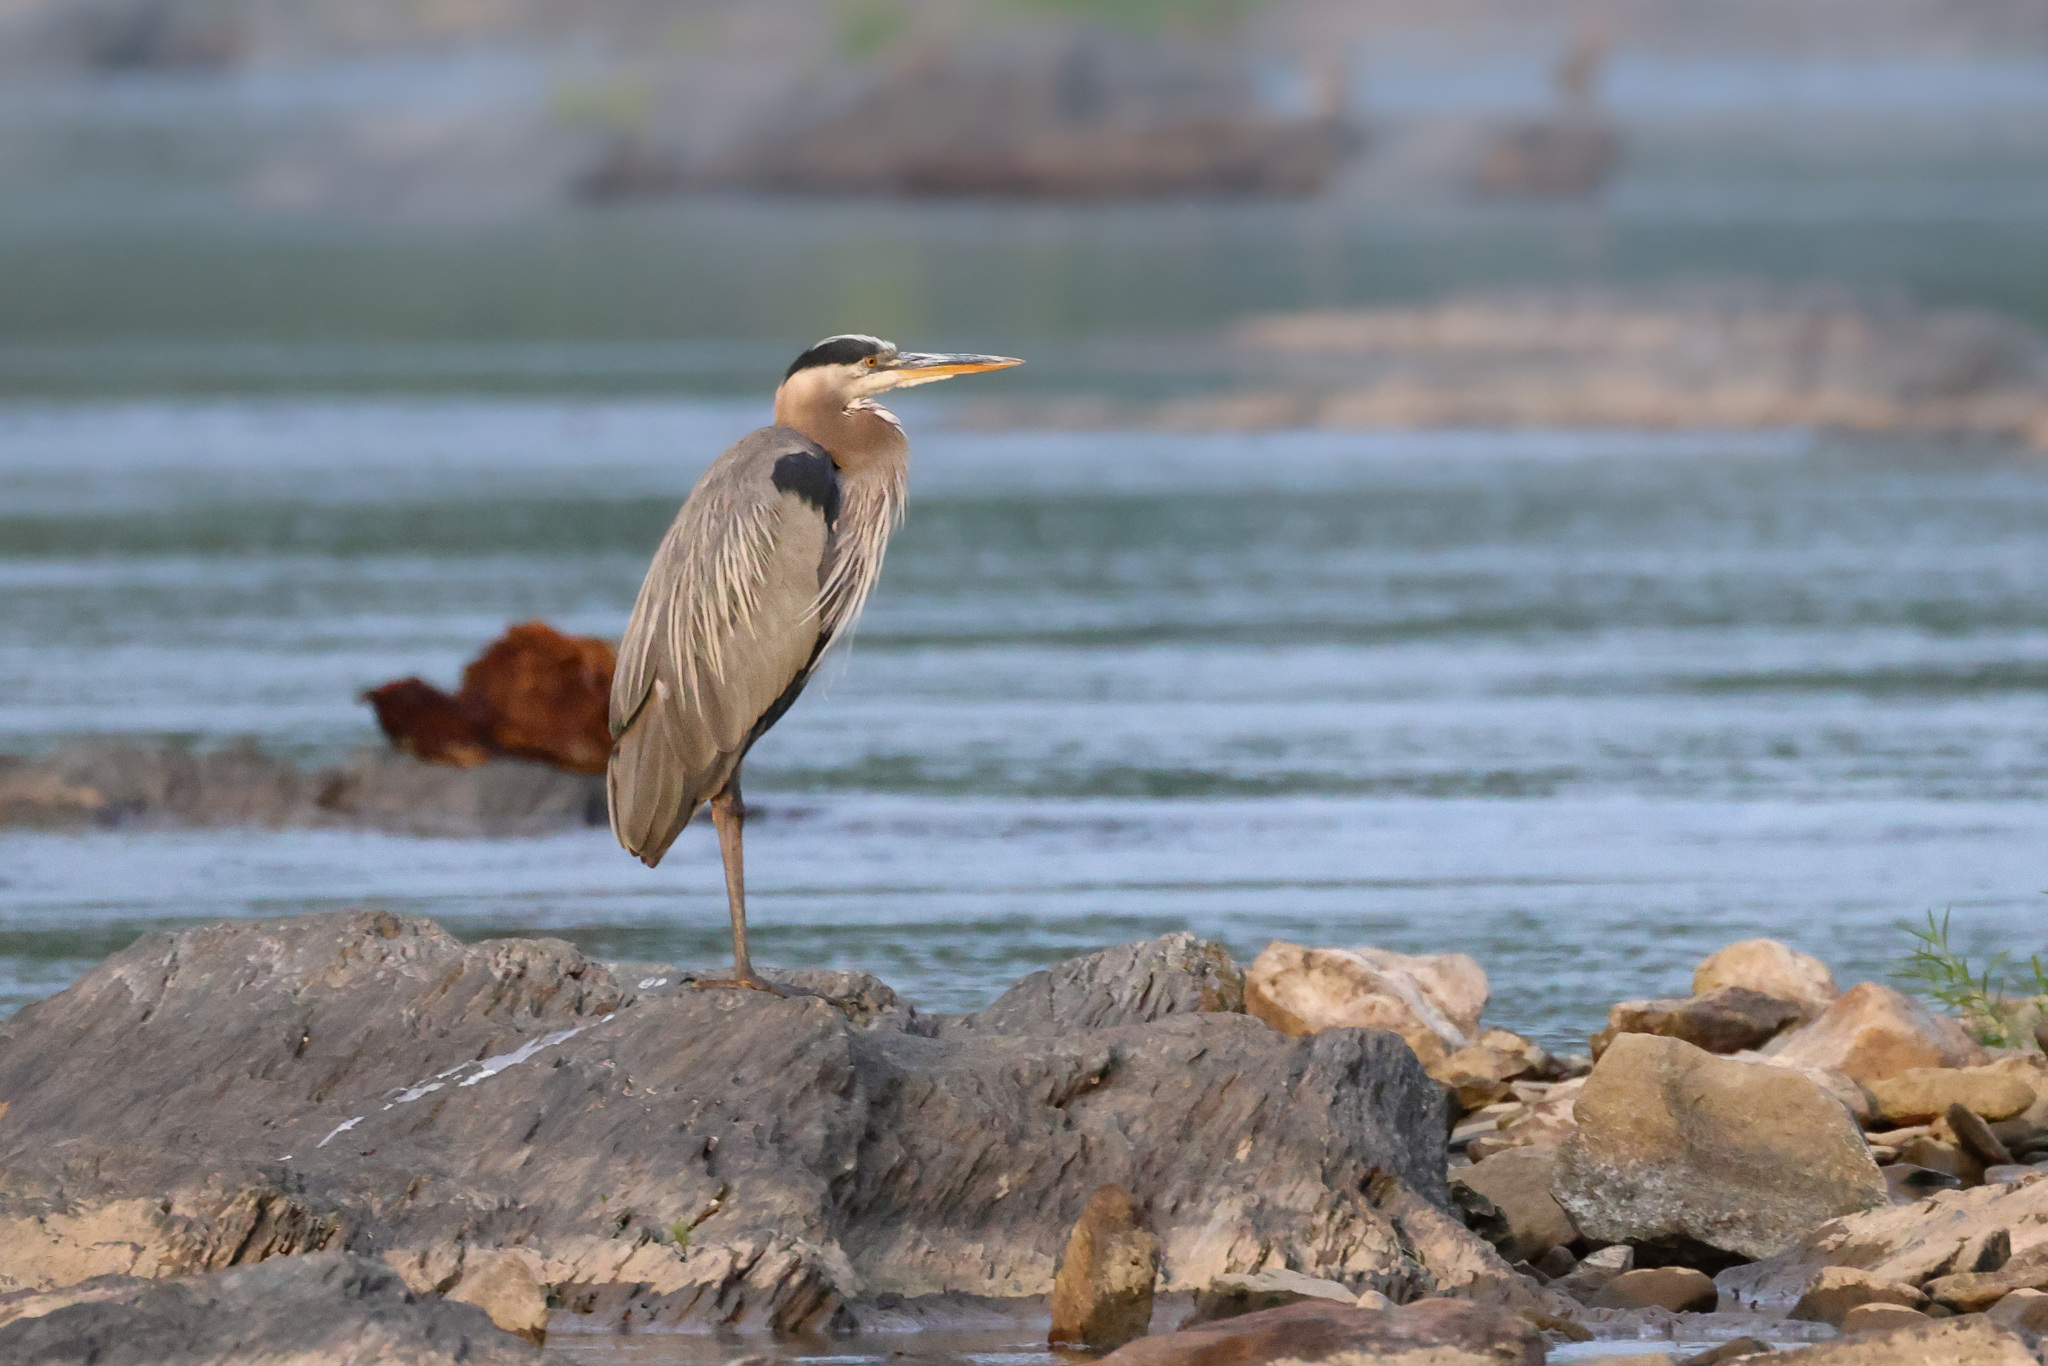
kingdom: Animalia
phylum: Chordata
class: Aves
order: Pelecaniformes
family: Ardeidae
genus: Ardea
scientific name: Ardea herodias
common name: Great blue heron
